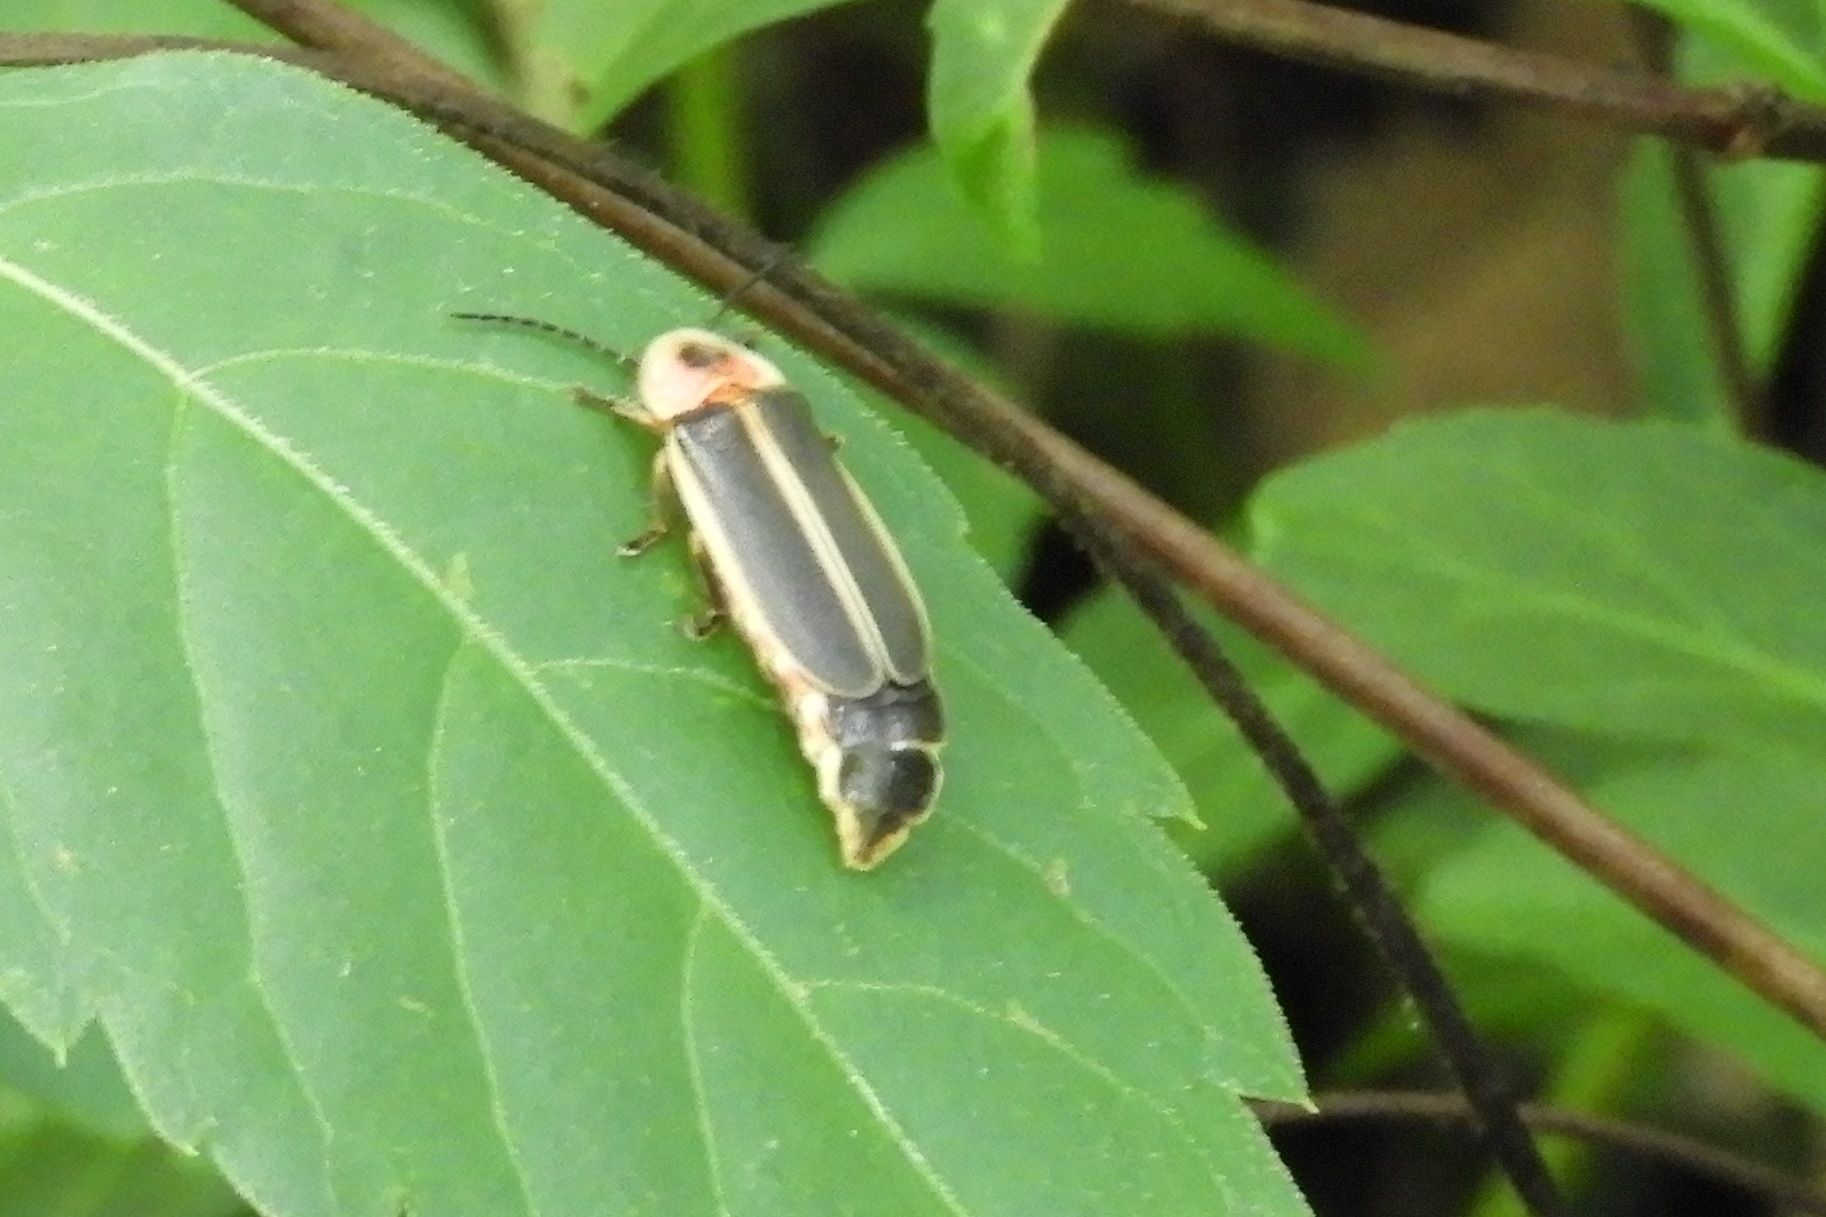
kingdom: Animalia
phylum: Arthropoda
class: Insecta
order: Coleoptera
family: Lampyridae
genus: Photinus
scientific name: Photinus pyralis
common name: Big dipper firefly
